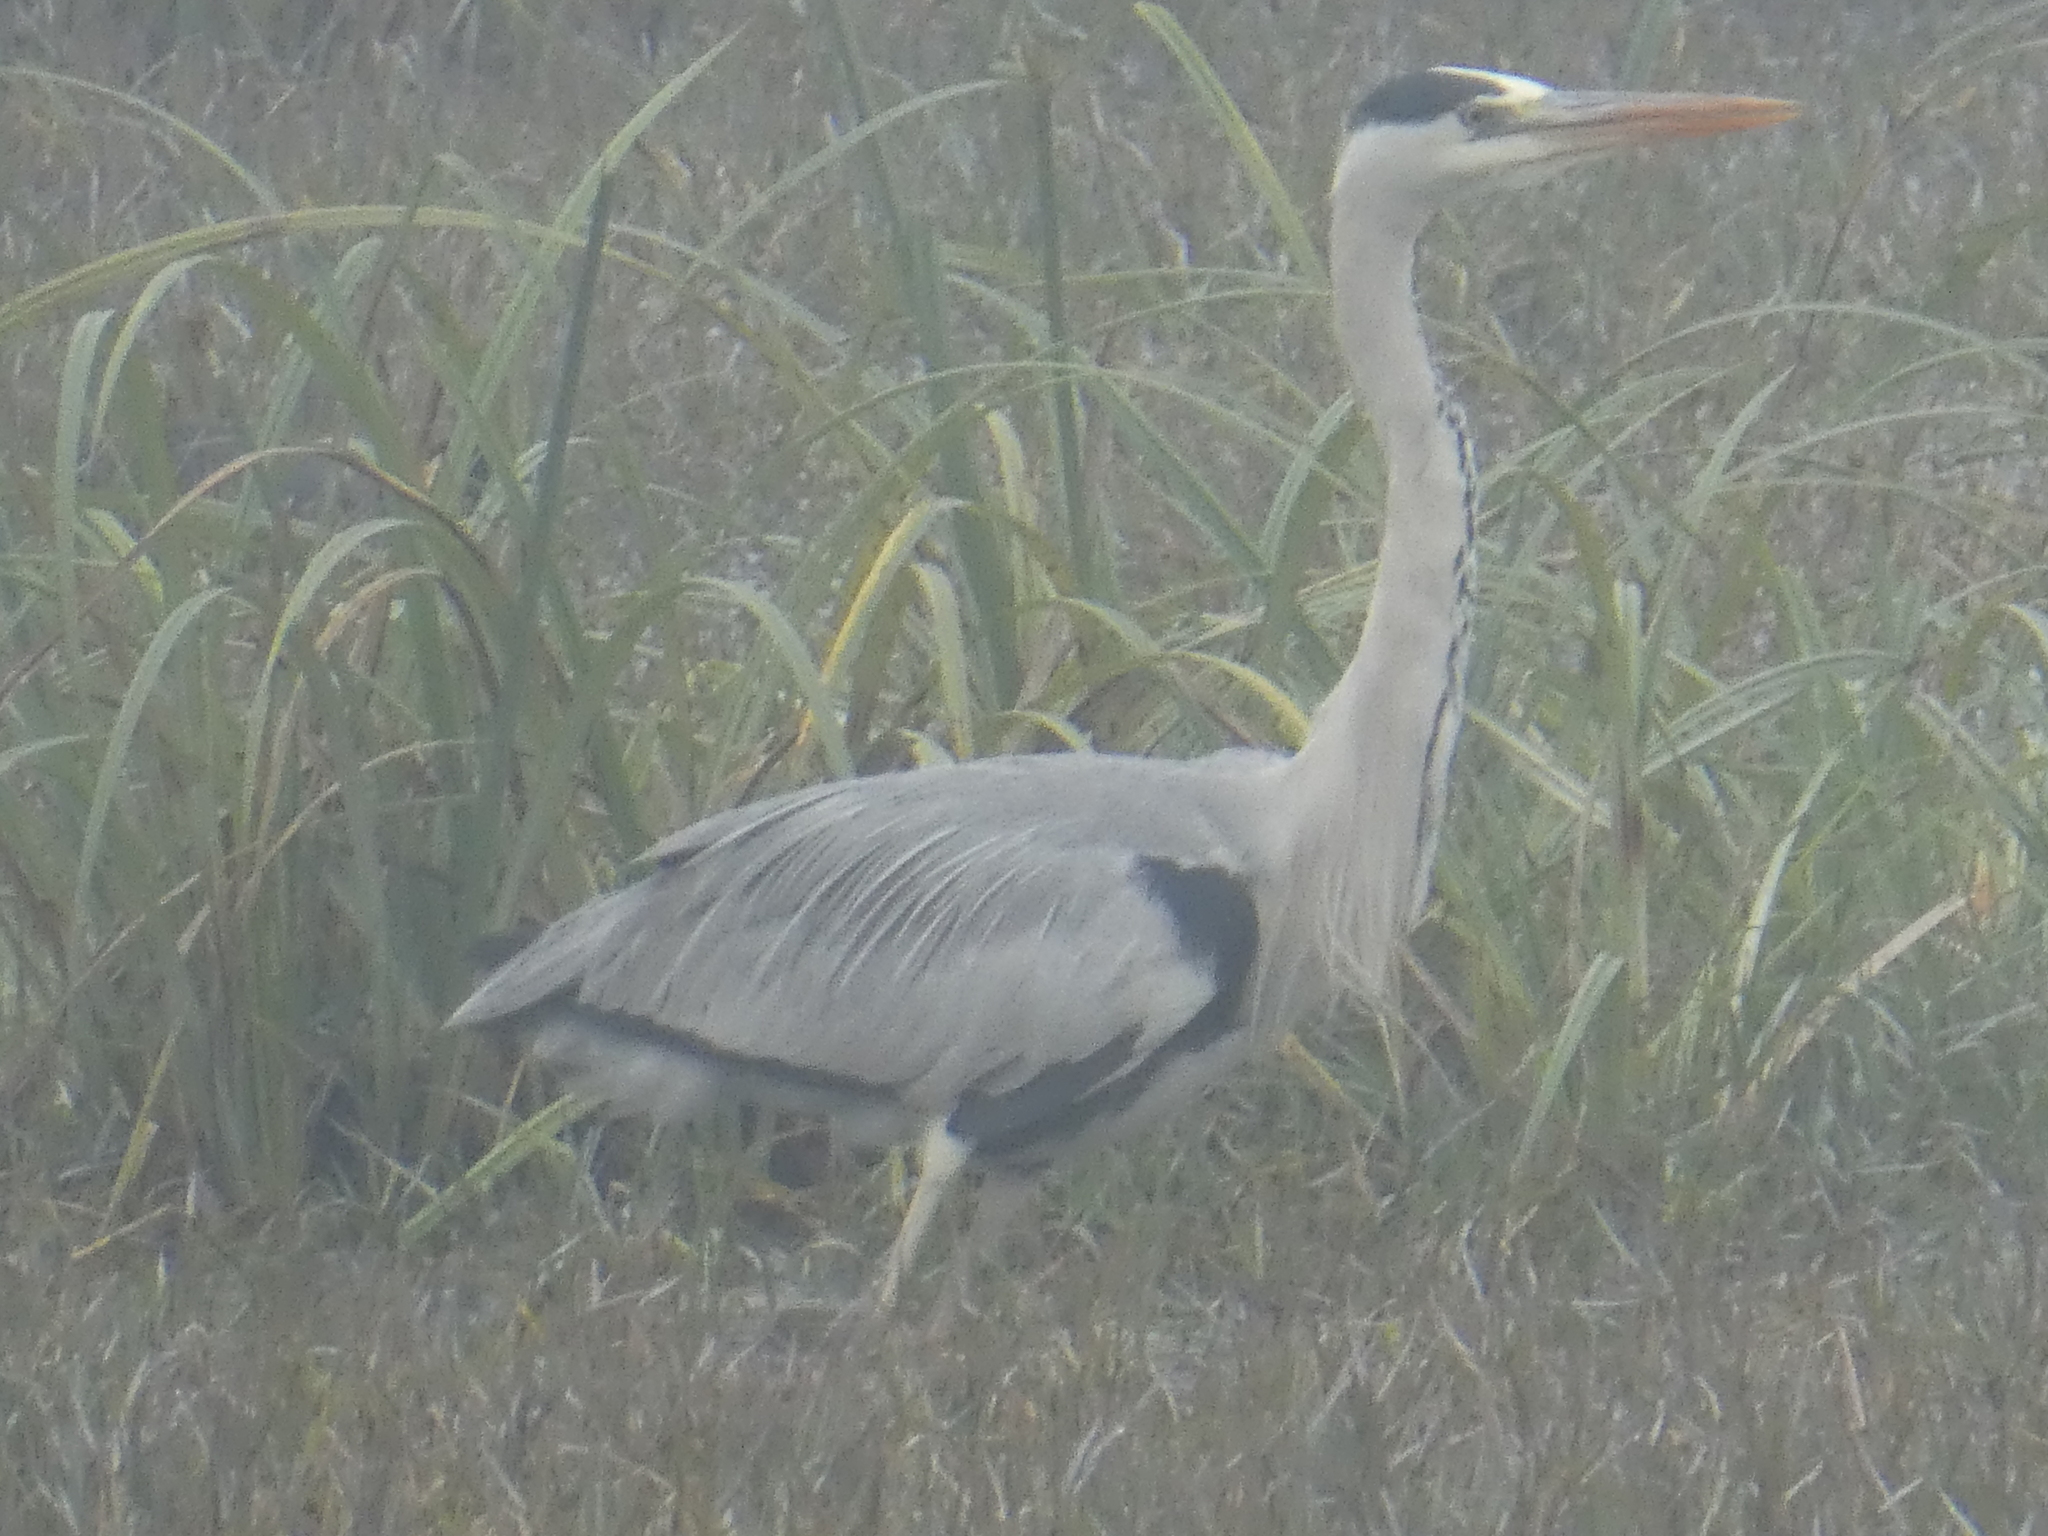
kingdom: Animalia
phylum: Chordata
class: Aves
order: Pelecaniformes
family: Ardeidae
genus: Ardea
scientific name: Ardea cinerea
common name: Grey heron
